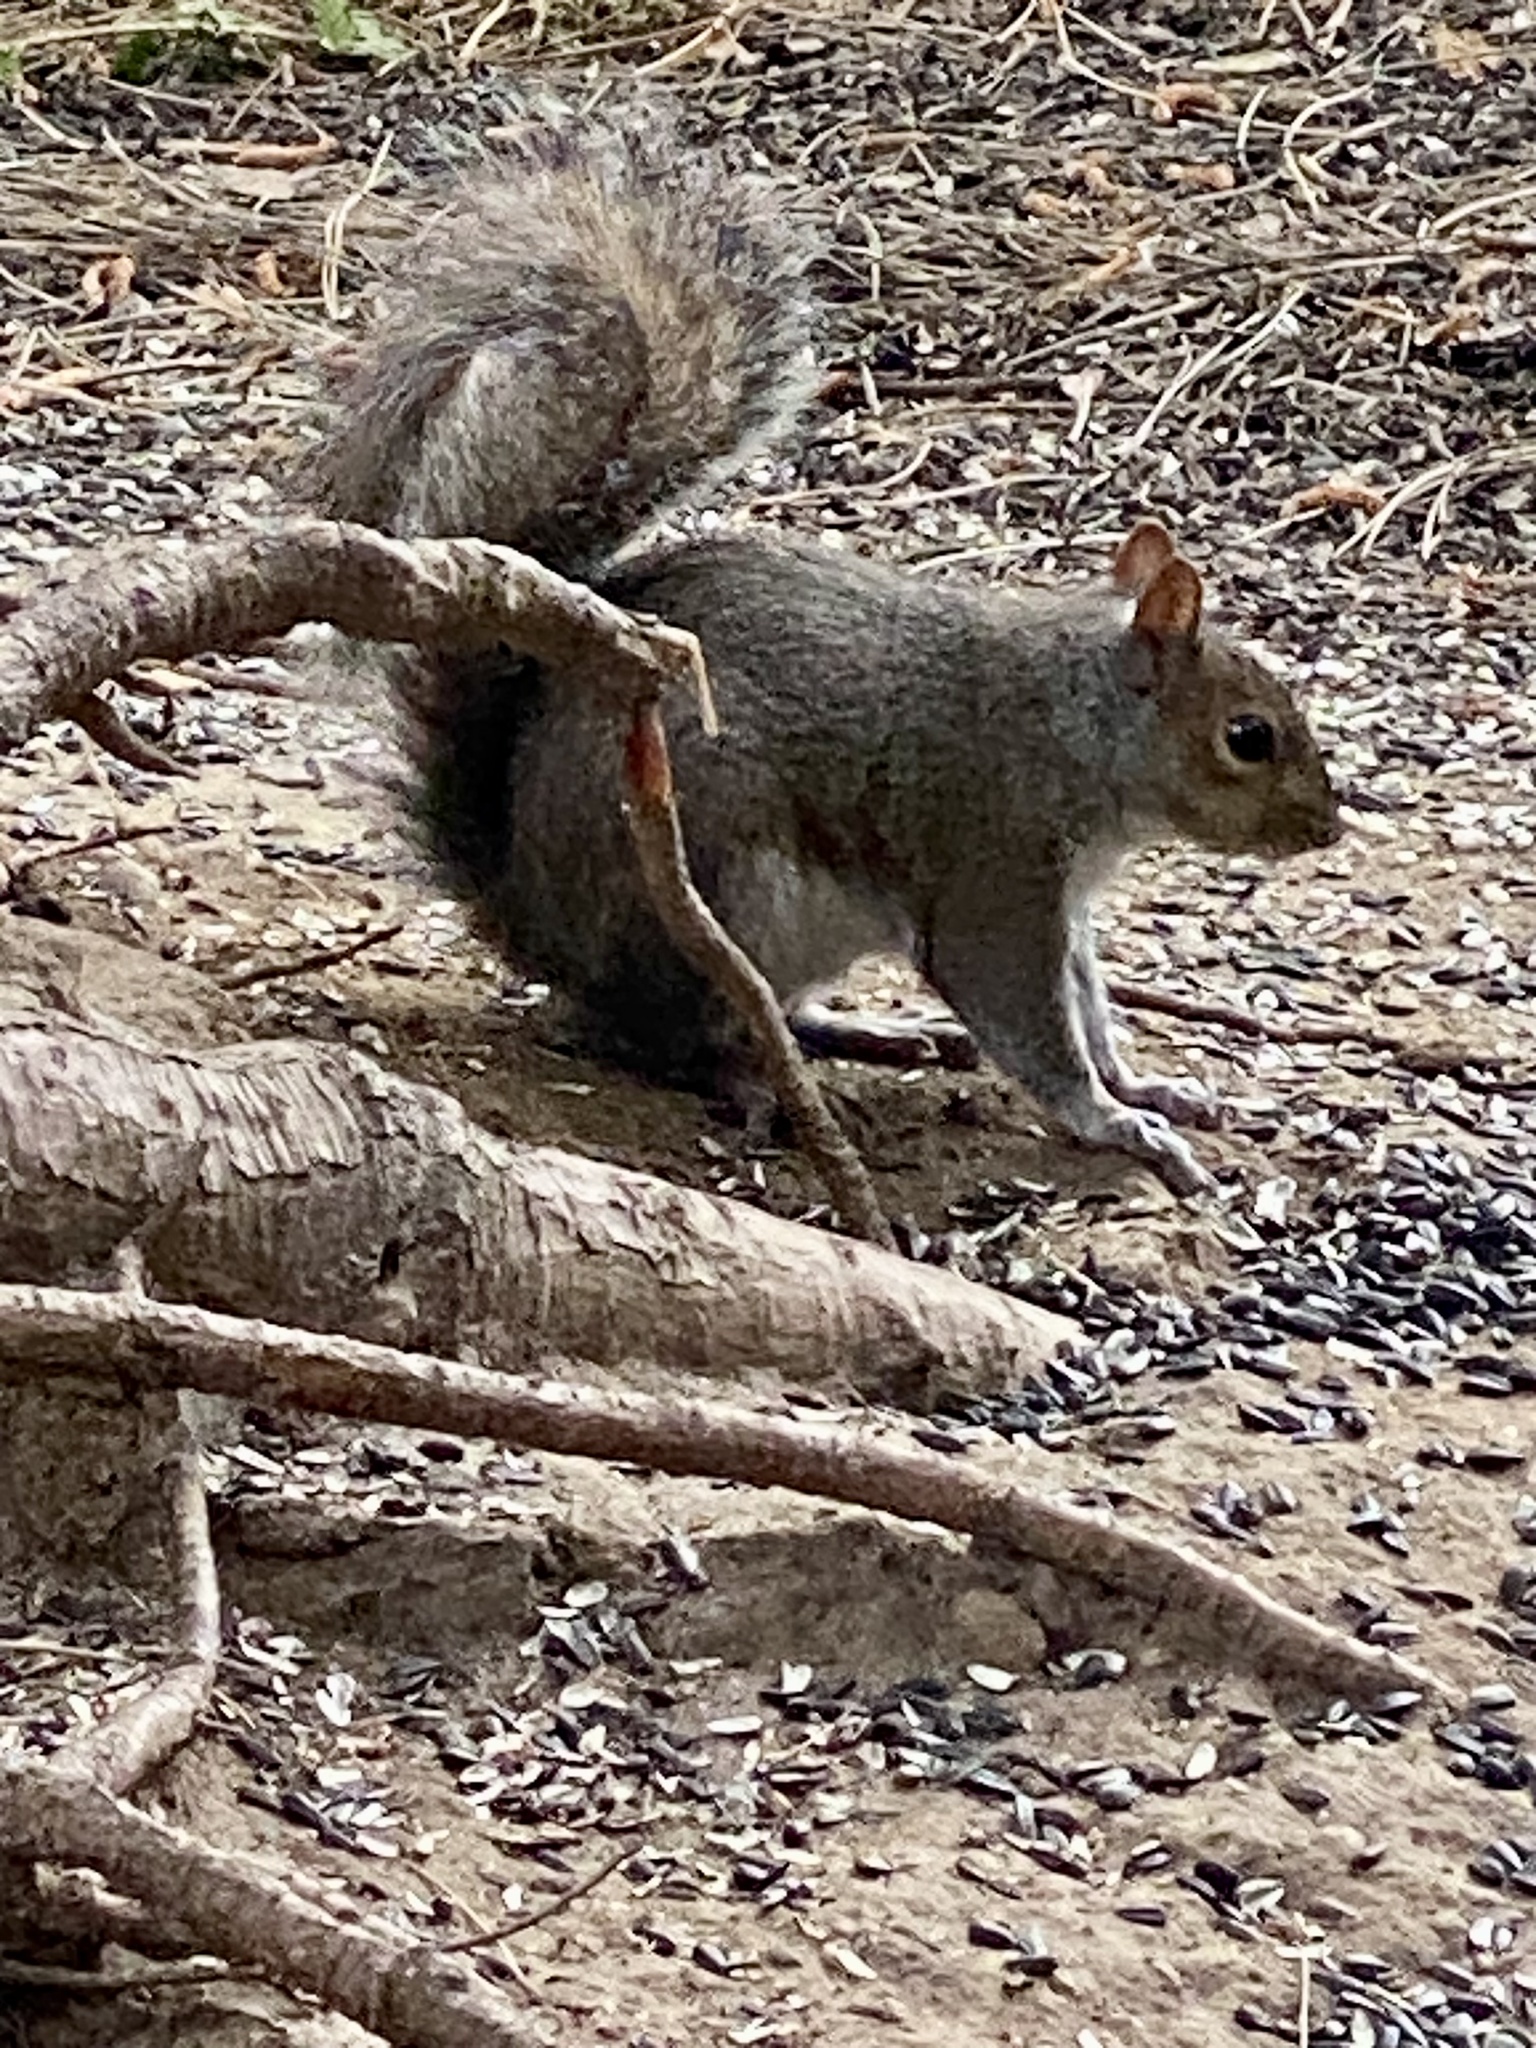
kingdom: Animalia
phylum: Chordata
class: Mammalia
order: Rodentia
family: Sciuridae
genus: Sciurus
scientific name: Sciurus carolinensis
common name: Eastern gray squirrel
